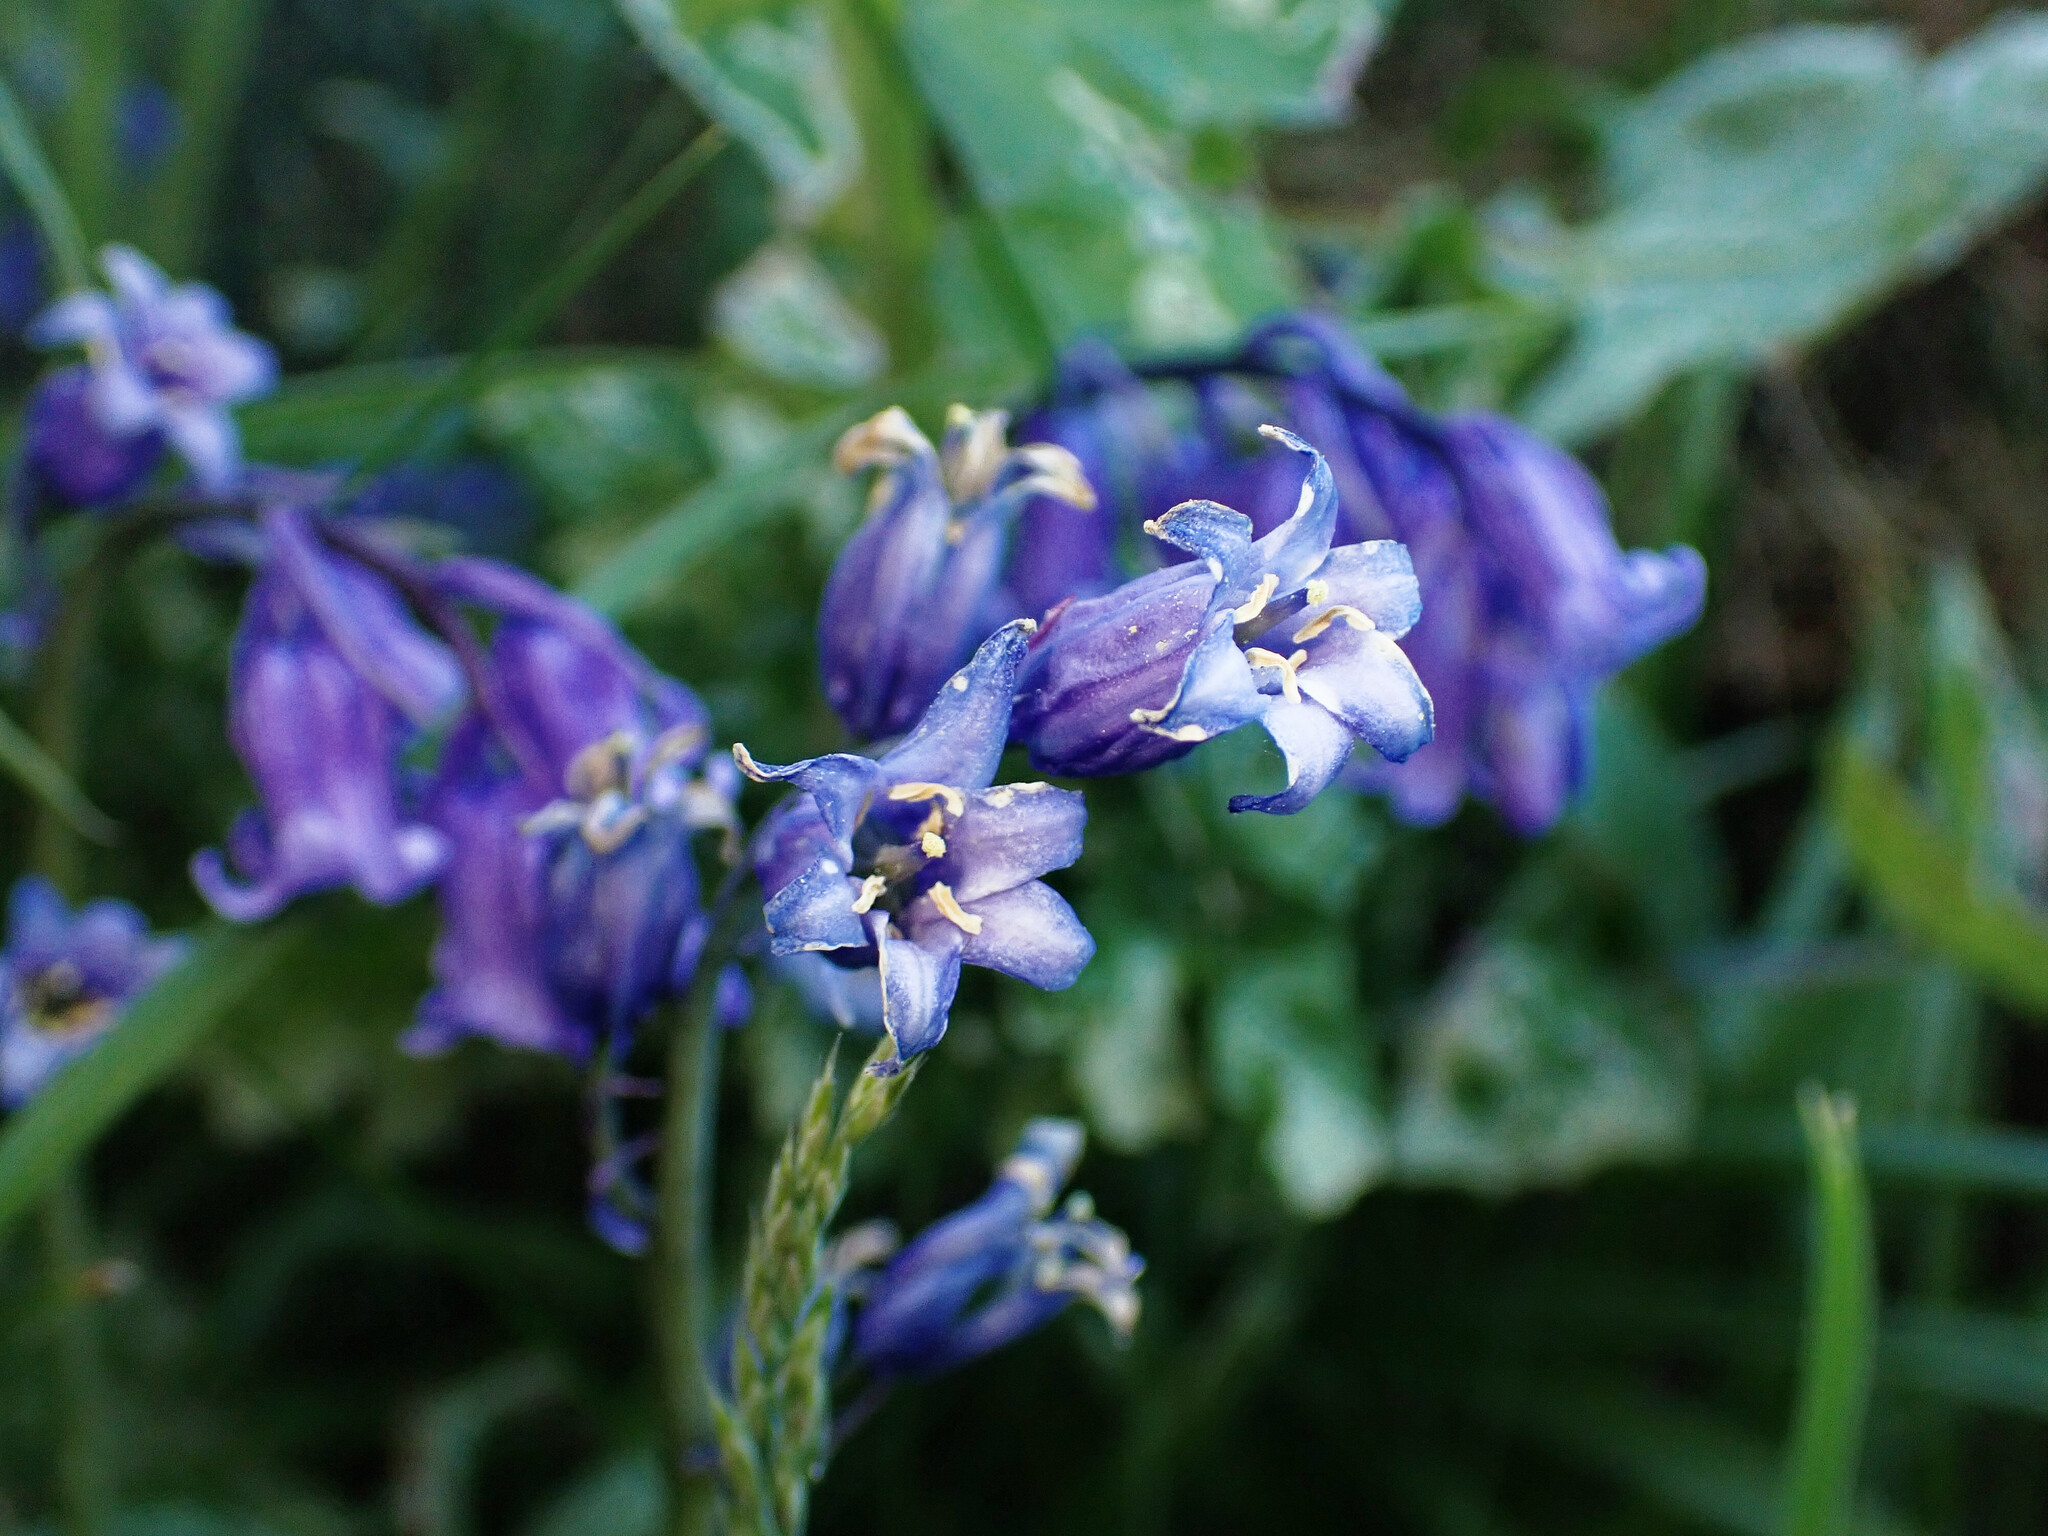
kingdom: Plantae
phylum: Tracheophyta
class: Liliopsida
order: Asparagales
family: Asparagaceae
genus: Hyacinthoides
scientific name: Hyacinthoides non-scripta
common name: Bluebell
